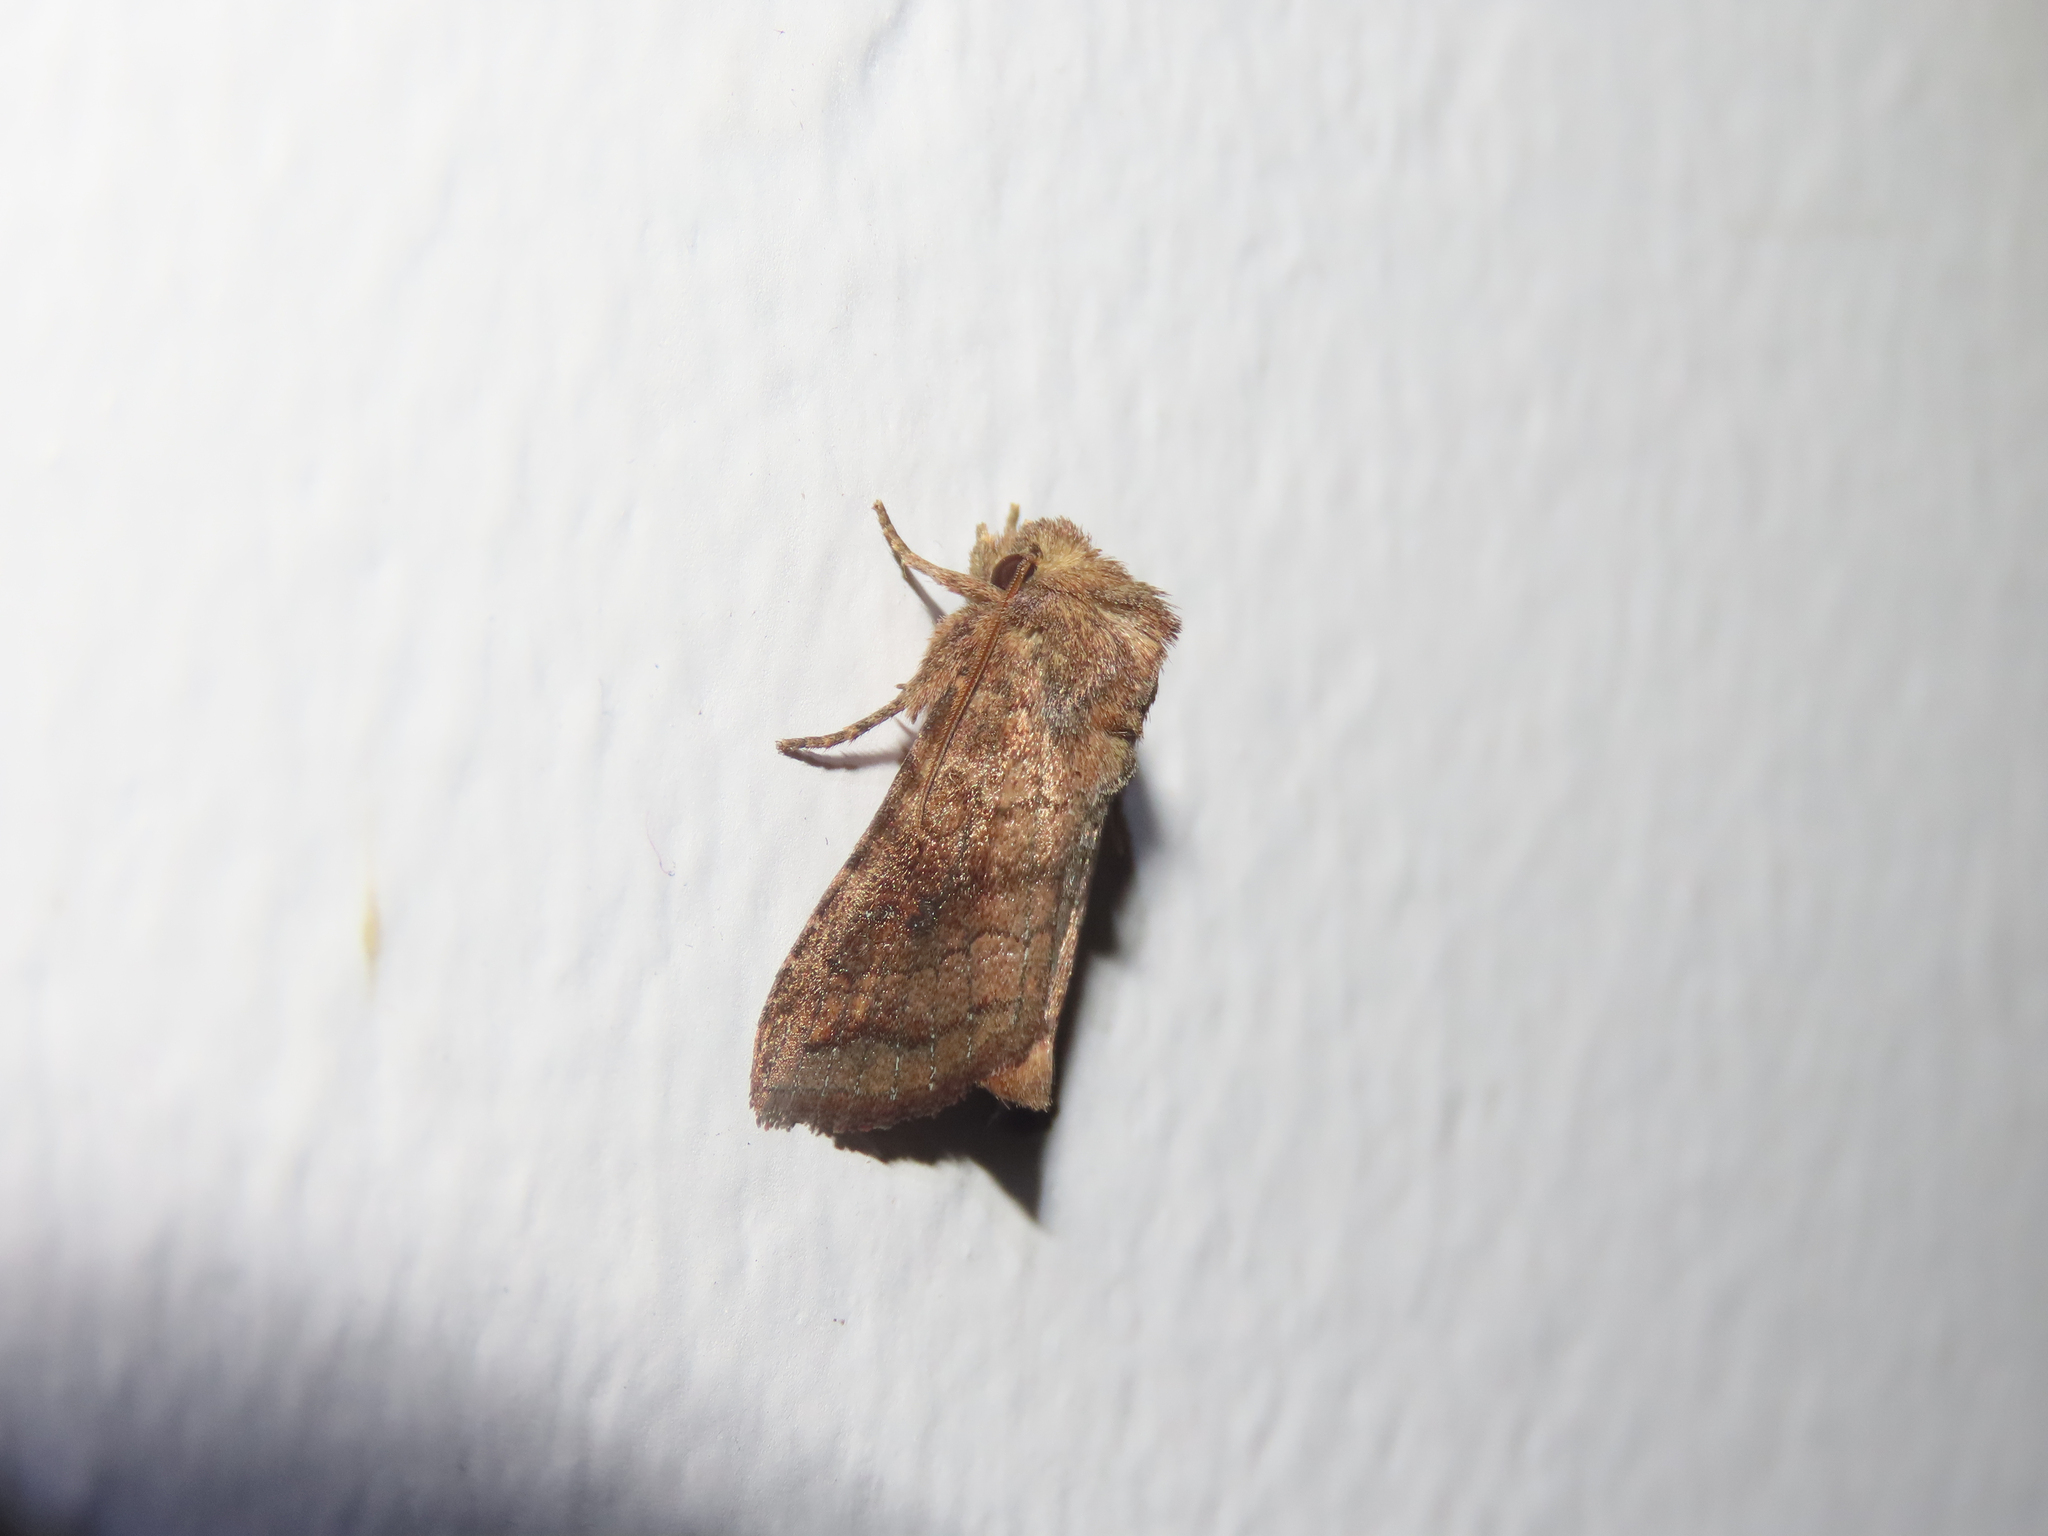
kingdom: Animalia
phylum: Arthropoda
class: Insecta
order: Lepidoptera
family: Noctuidae
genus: Loscopia
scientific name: Loscopia velata
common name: Veiled ear moth
